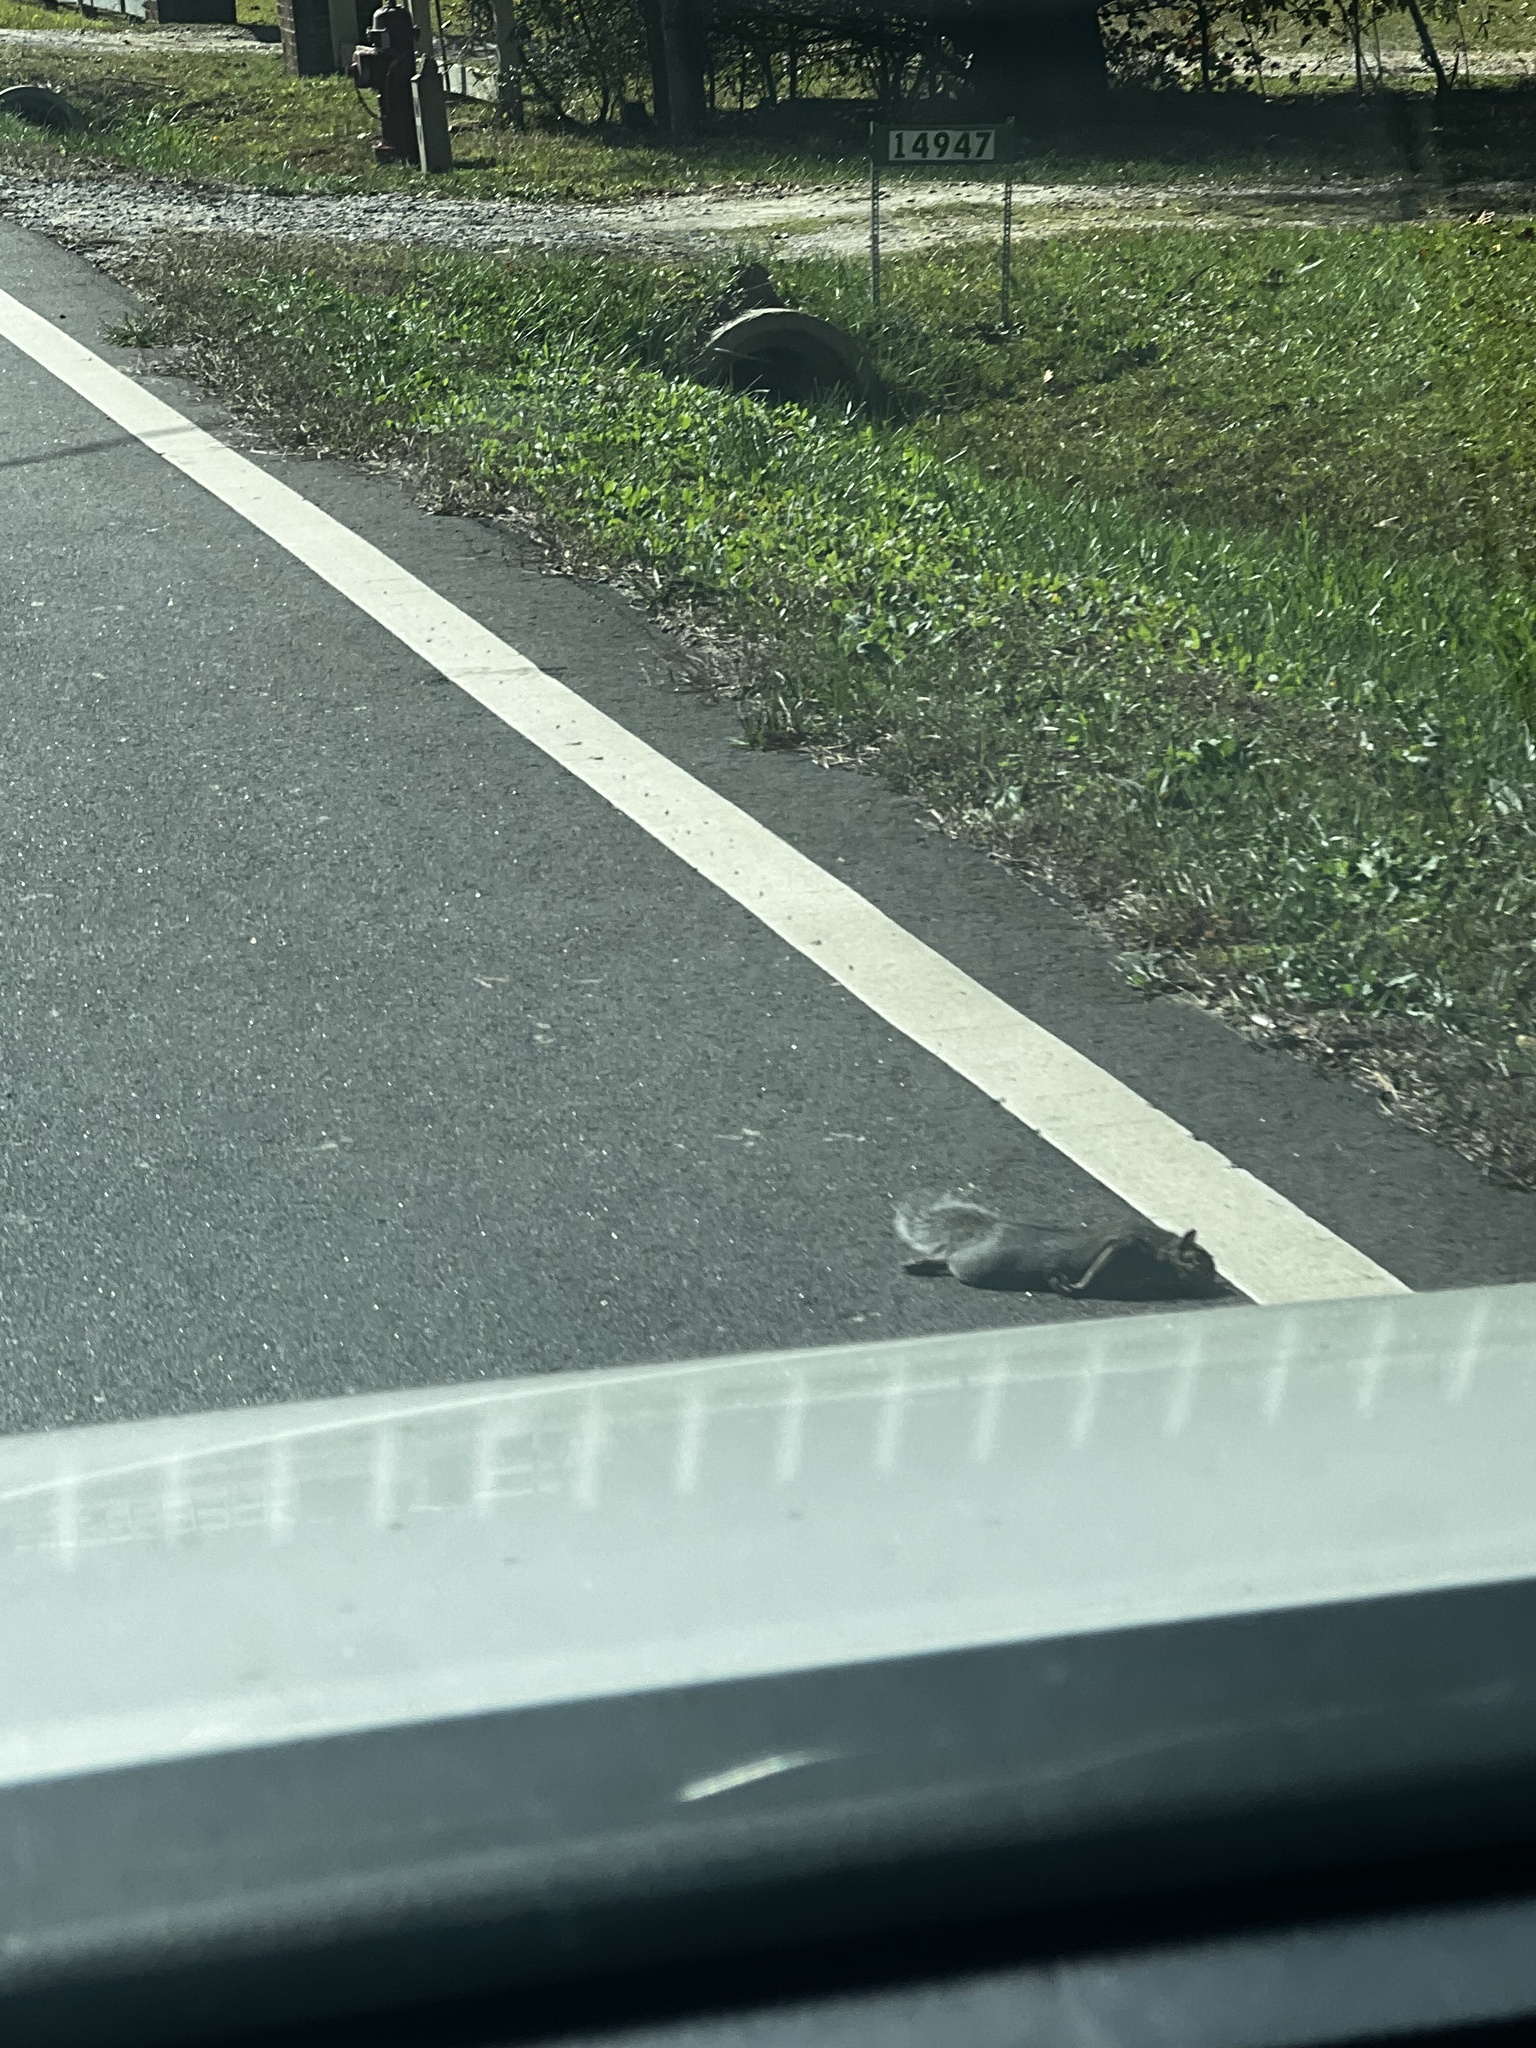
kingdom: Animalia
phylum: Chordata
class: Mammalia
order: Rodentia
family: Sciuridae
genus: Sciurus
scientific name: Sciurus carolinensis
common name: Eastern gray squirrel
